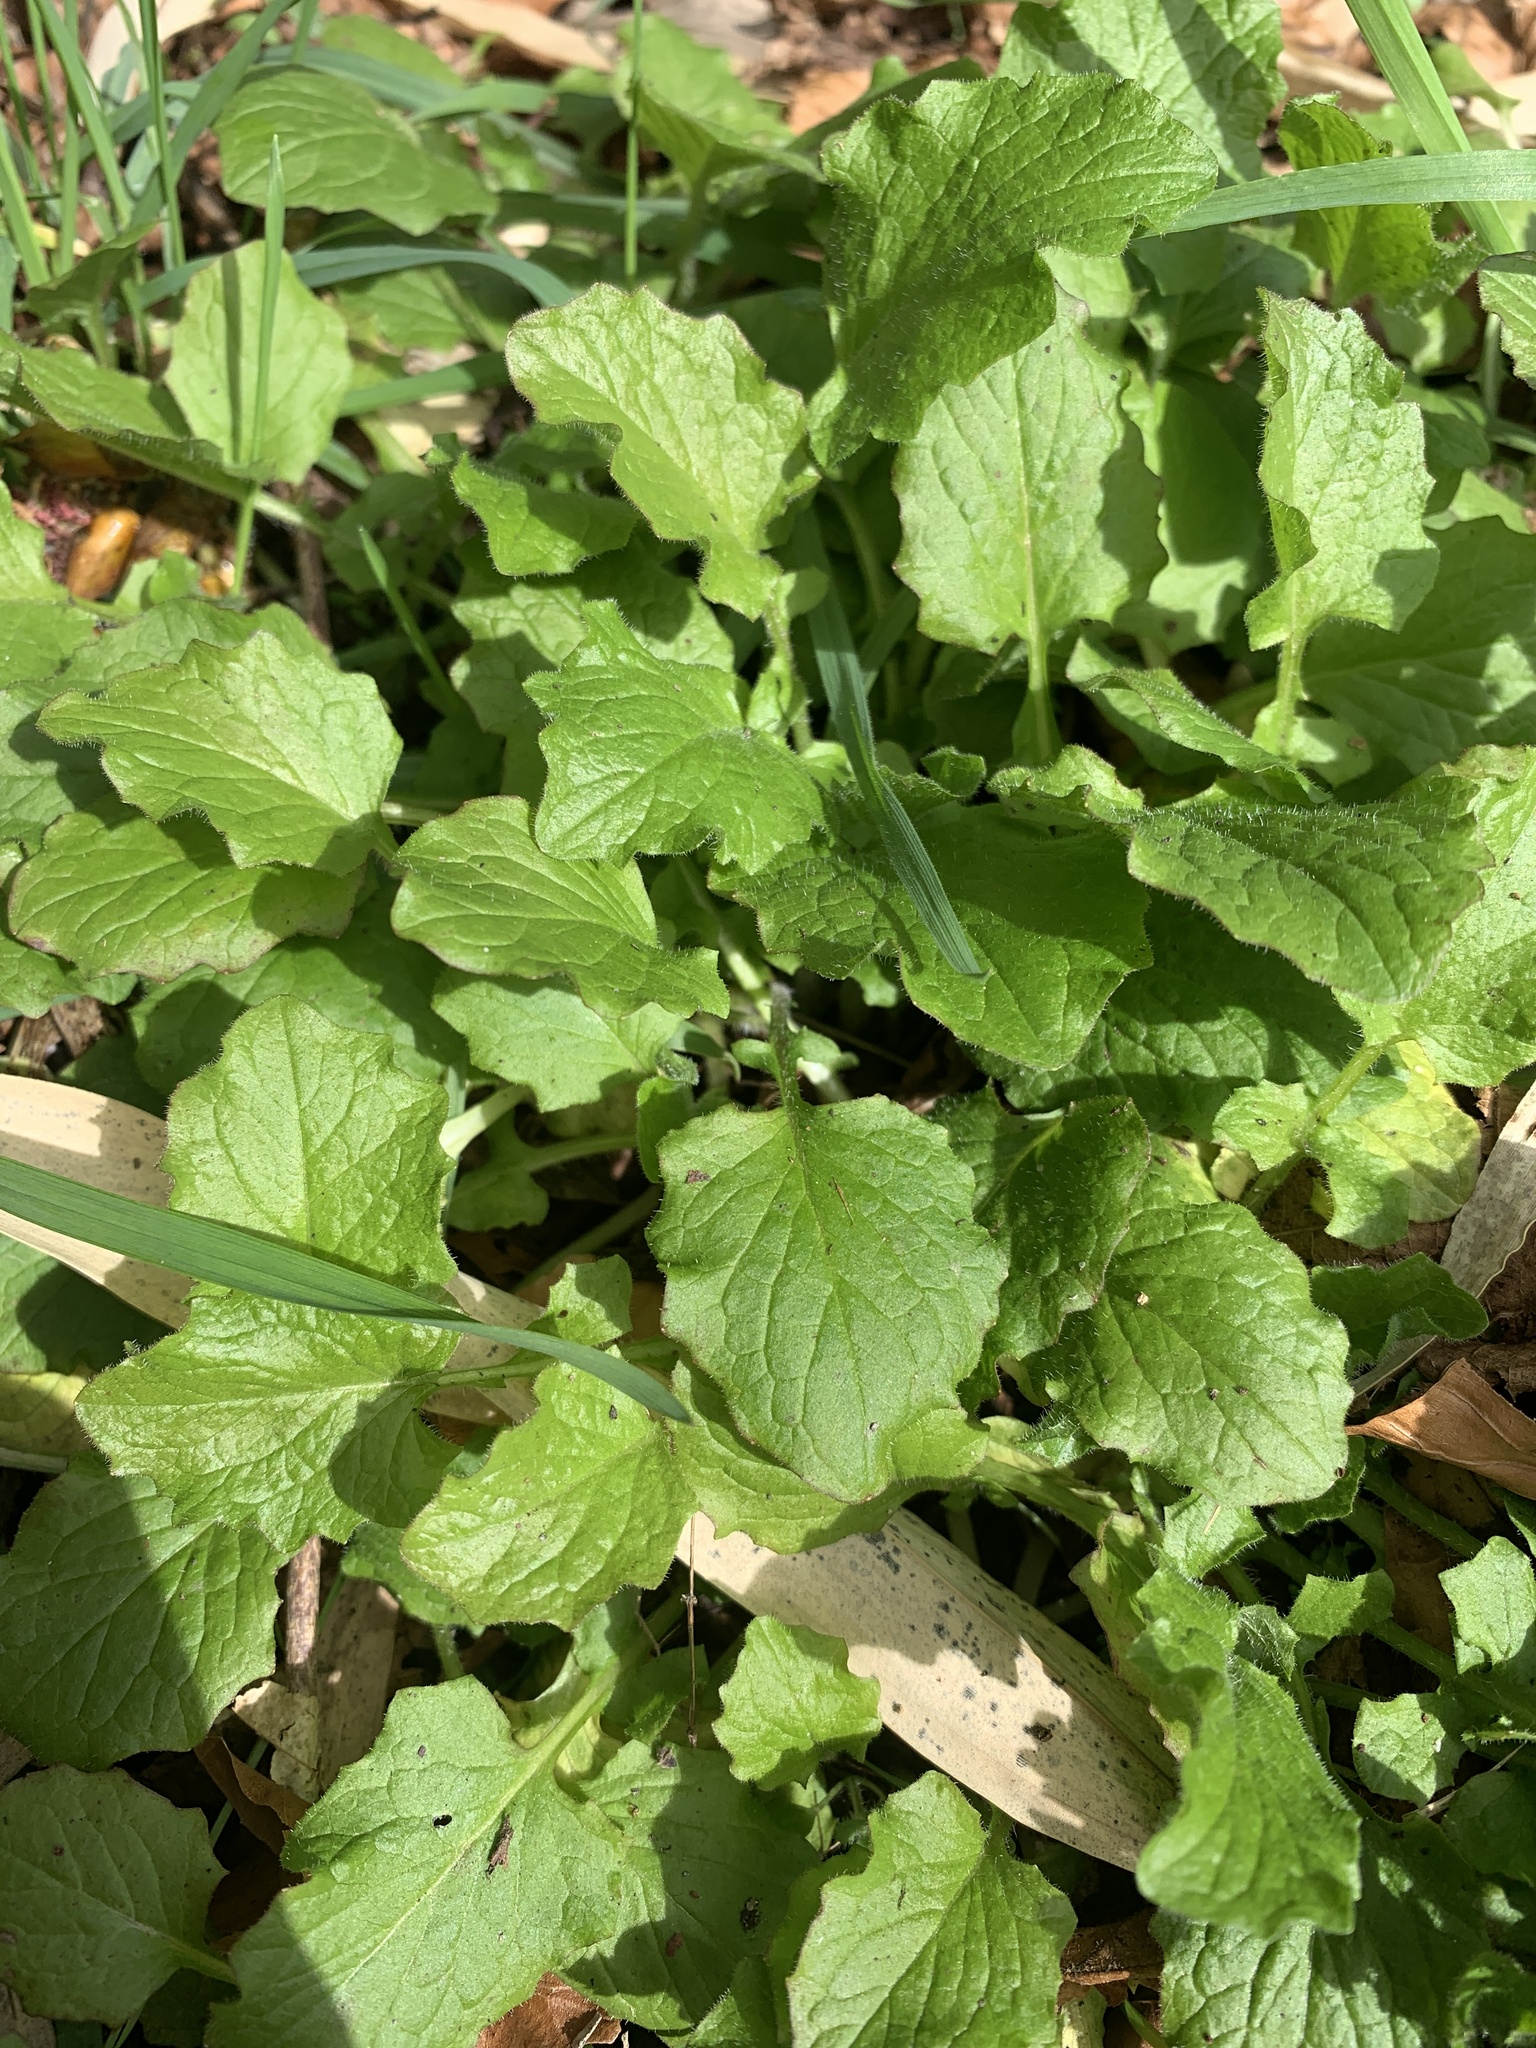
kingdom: Plantae
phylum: Tracheophyta
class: Magnoliopsida
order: Asterales
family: Asteraceae
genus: Lapsana
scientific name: Lapsana communis
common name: Nipplewort
